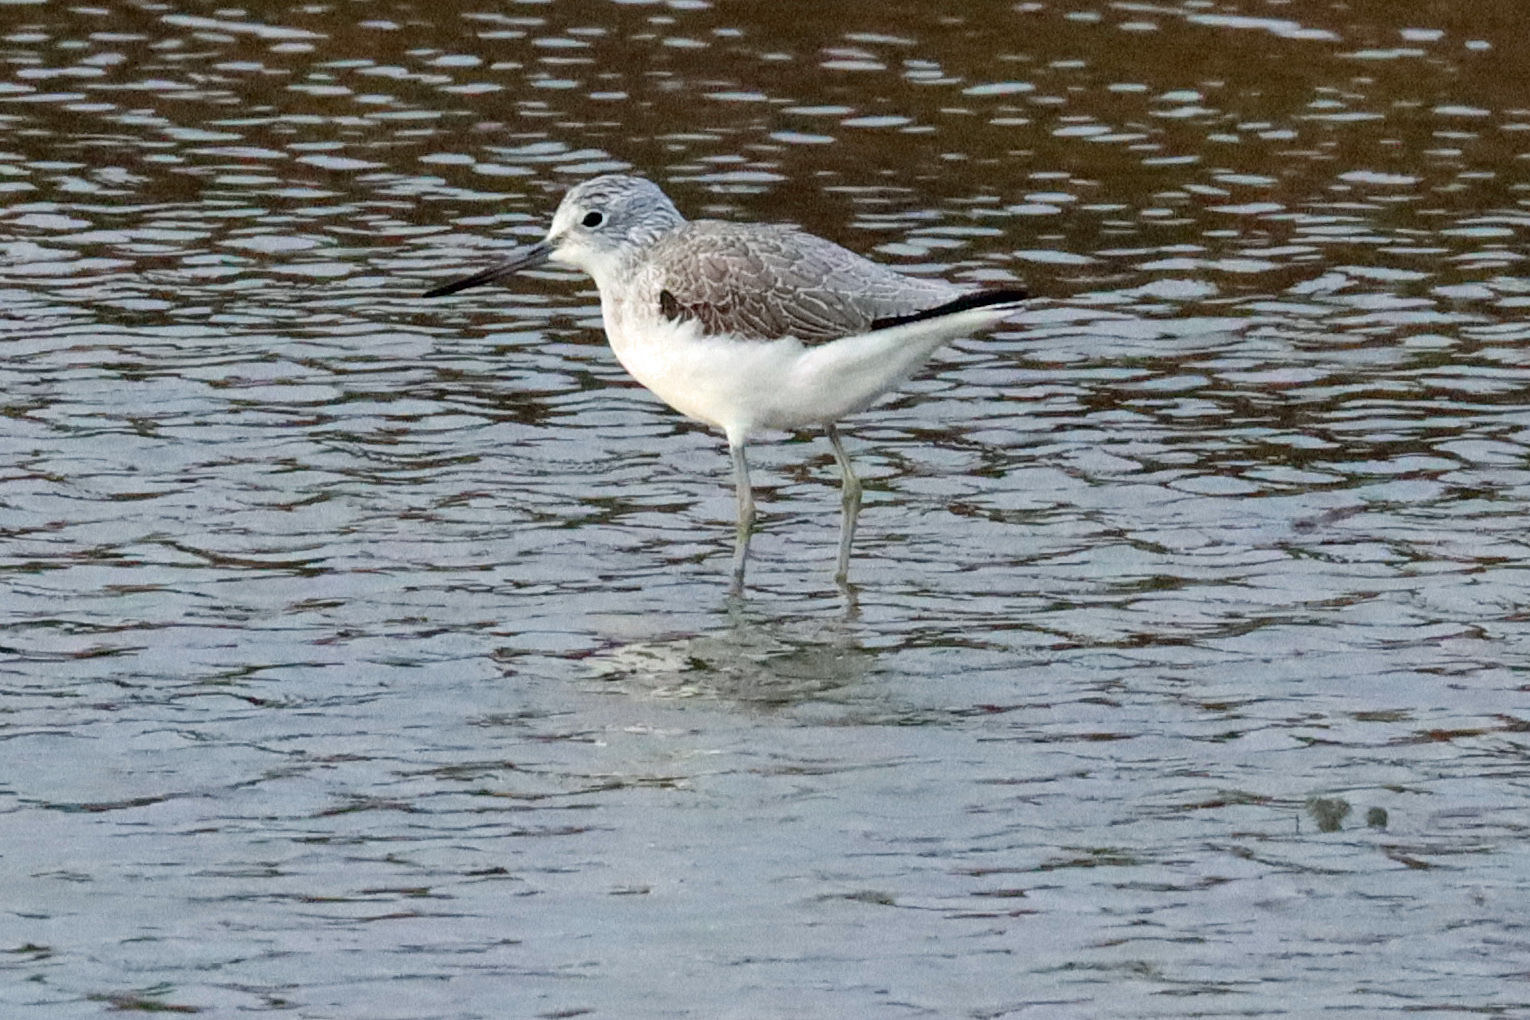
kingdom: Animalia
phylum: Chordata
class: Aves
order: Charadriiformes
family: Scolopacidae
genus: Tringa
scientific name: Tringa nebularia
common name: Common greenshank
